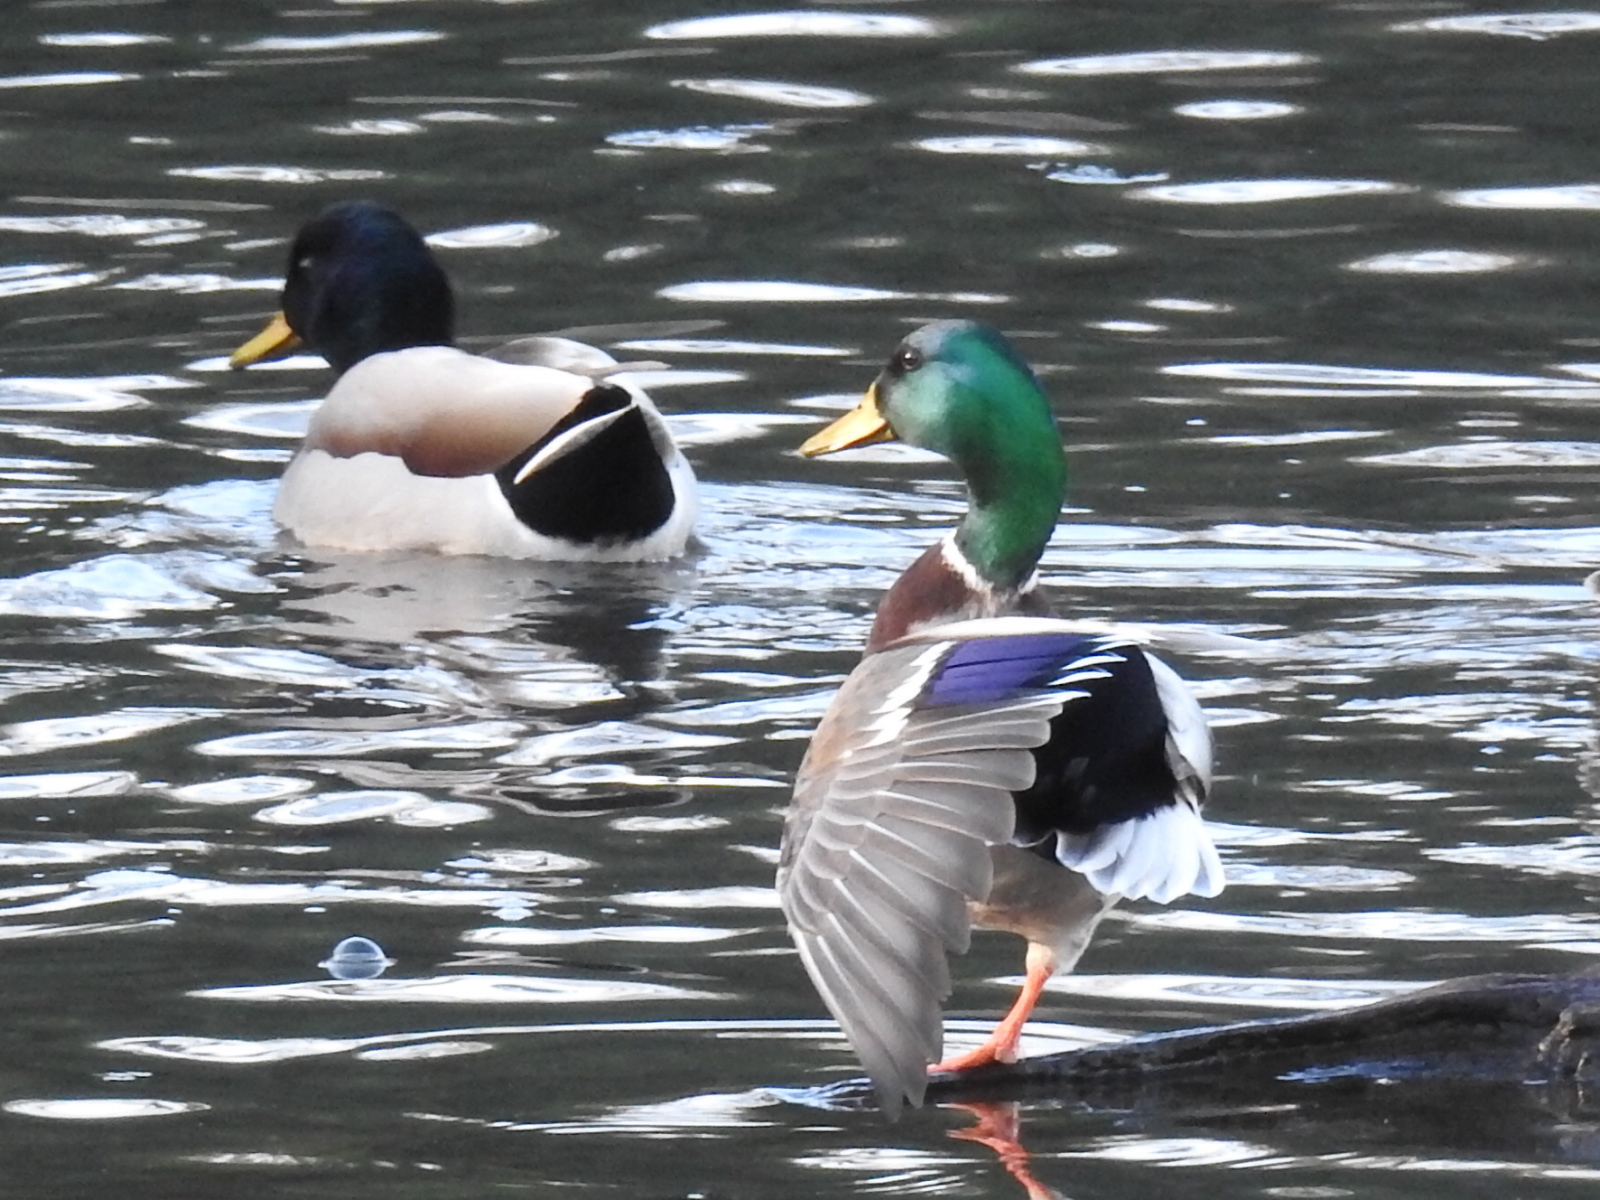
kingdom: Animalia
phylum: Chordata
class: Aves
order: Anseriformes
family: Anatidae
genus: Anas
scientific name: Anas platyrhynchos
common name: Mallard
